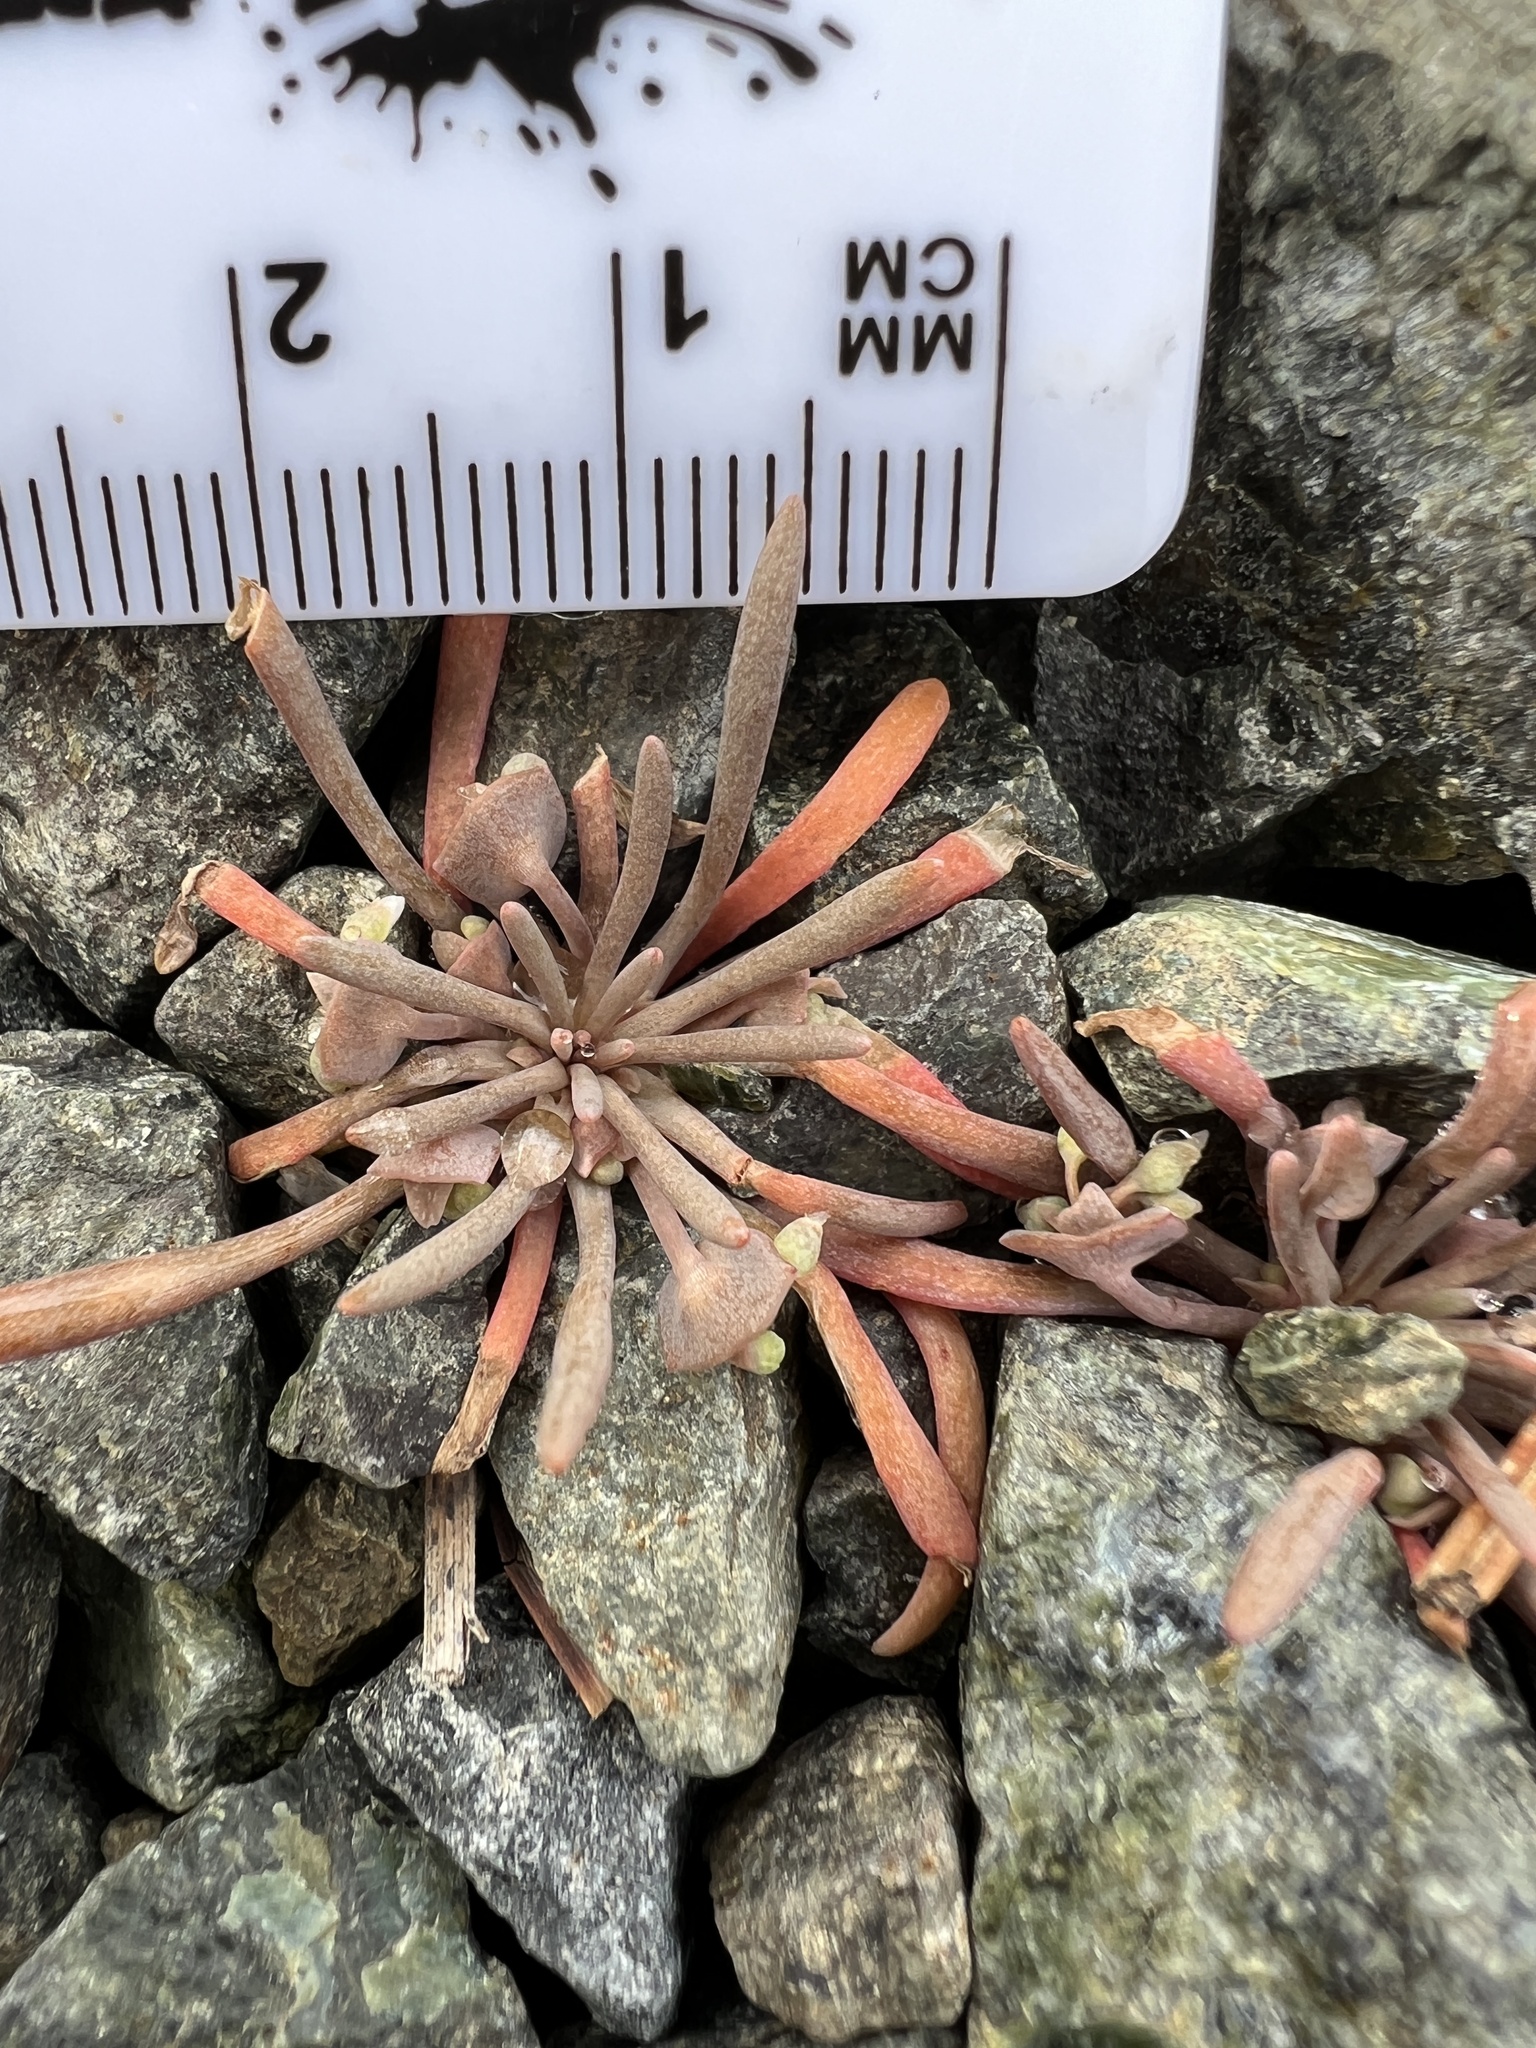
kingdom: Plantae
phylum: Tracheophyta
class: Magnoliopsida
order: Caryophyllales
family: Montiaceae
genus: Claytonia
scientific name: Claytonia exigua
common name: Pale spring beauty
